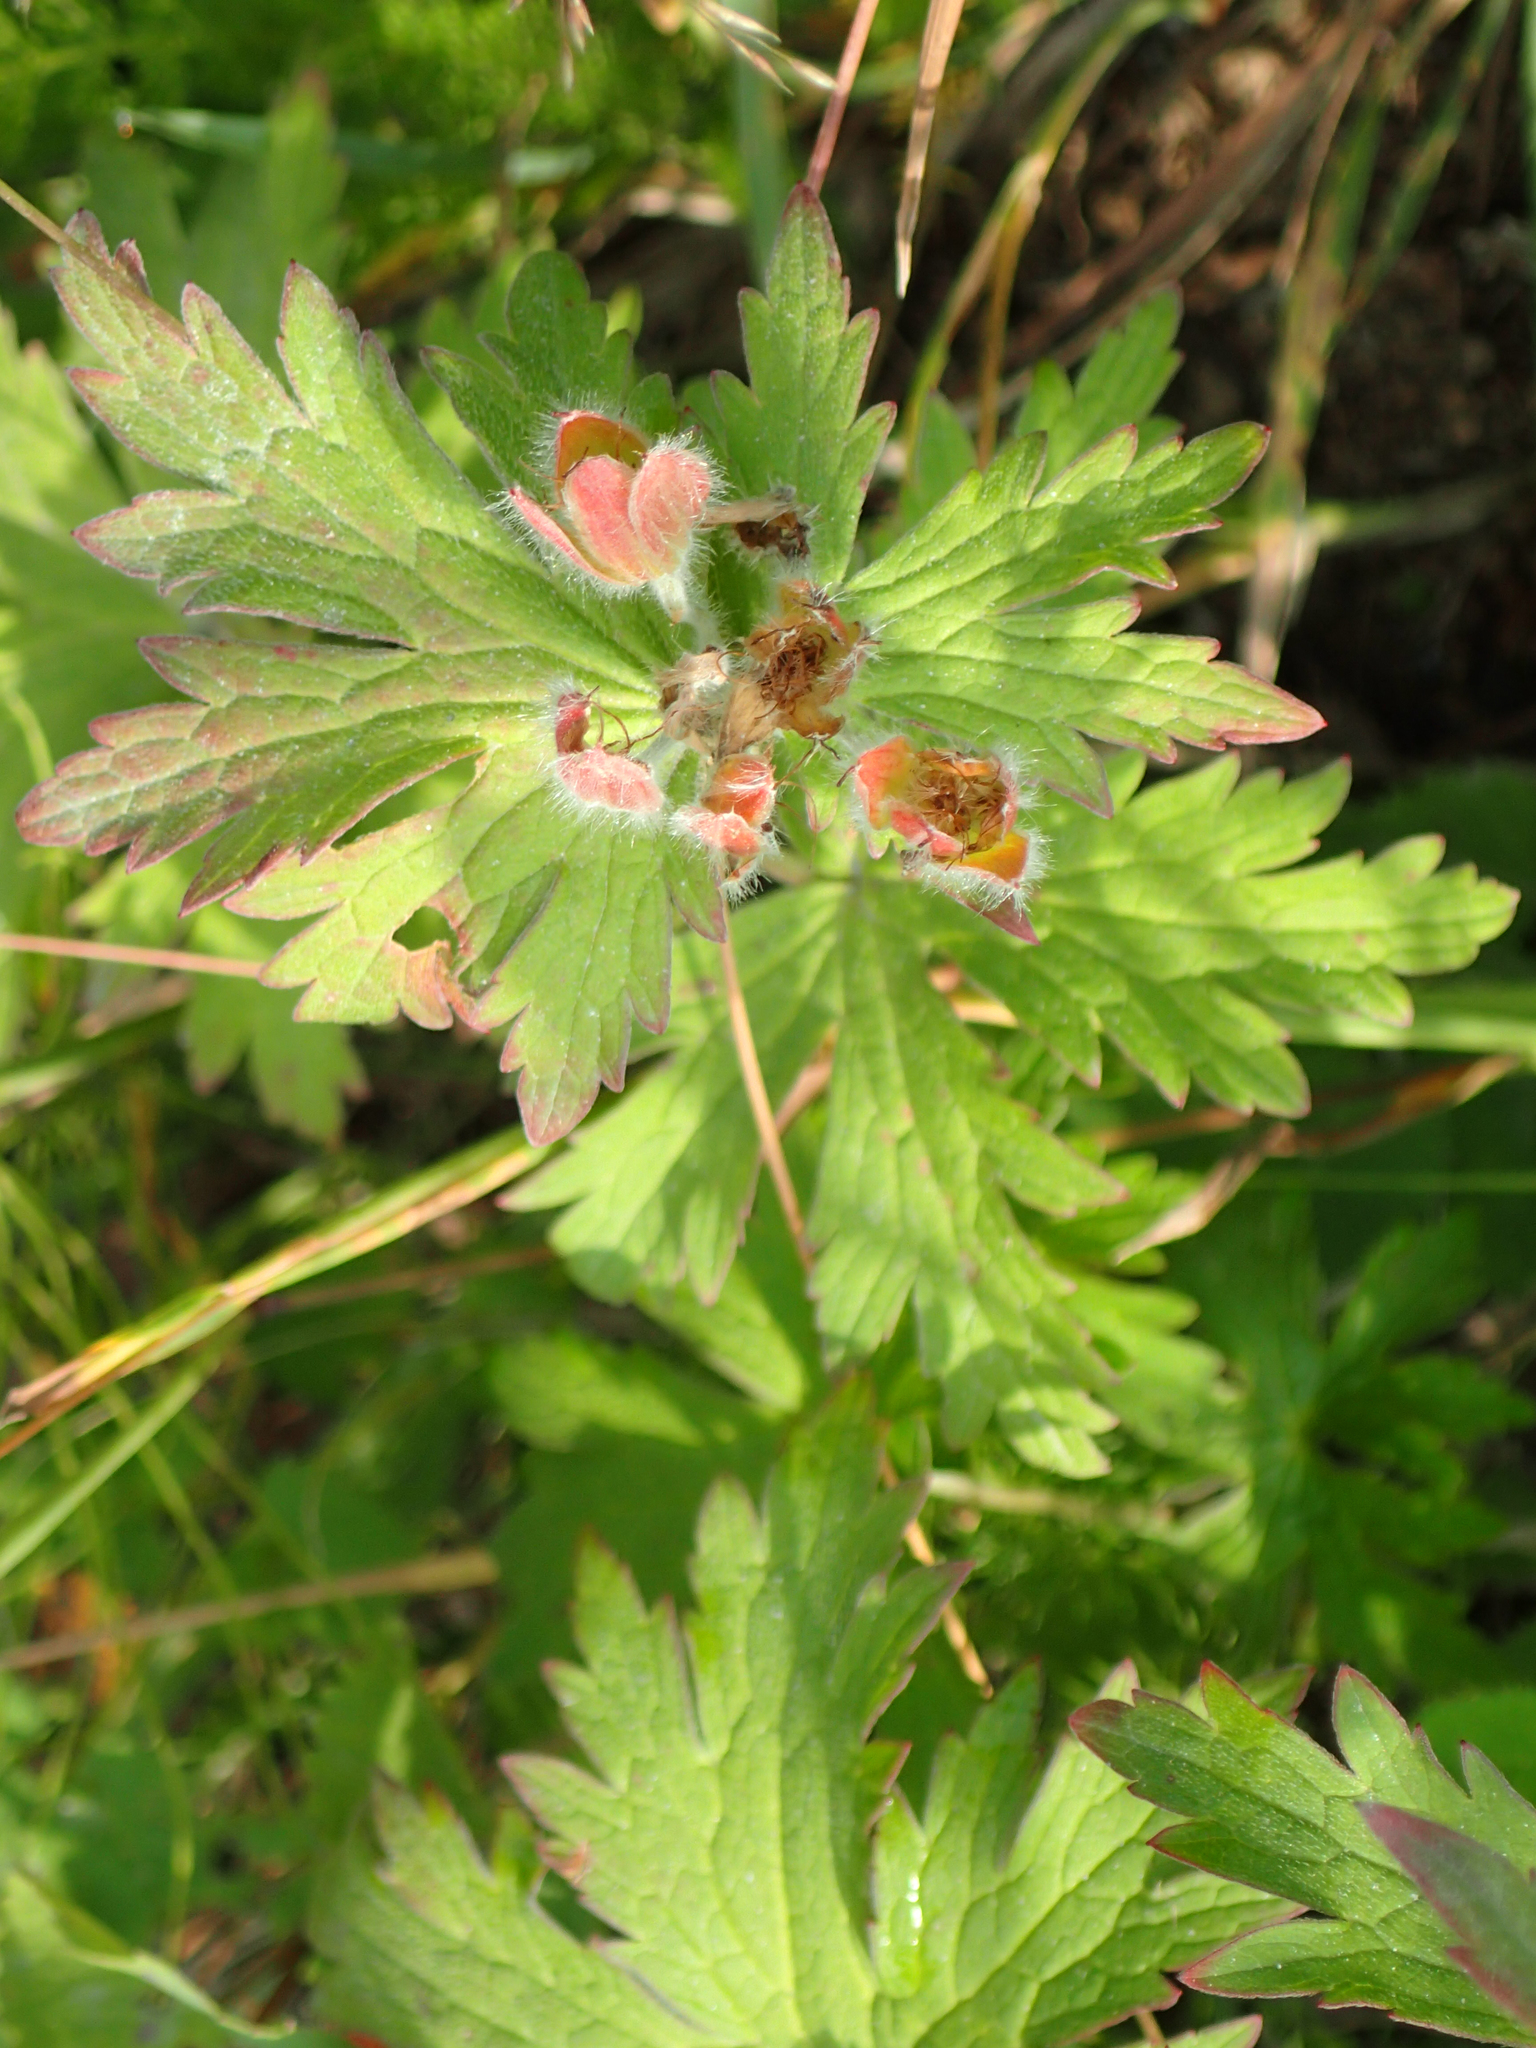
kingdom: Plantae
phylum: Tracheophyta
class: Magnoliopsida
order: Geraniales
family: Geraniaceae
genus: Geranium
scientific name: Geranium erianthum
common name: Northern crane's-bill
